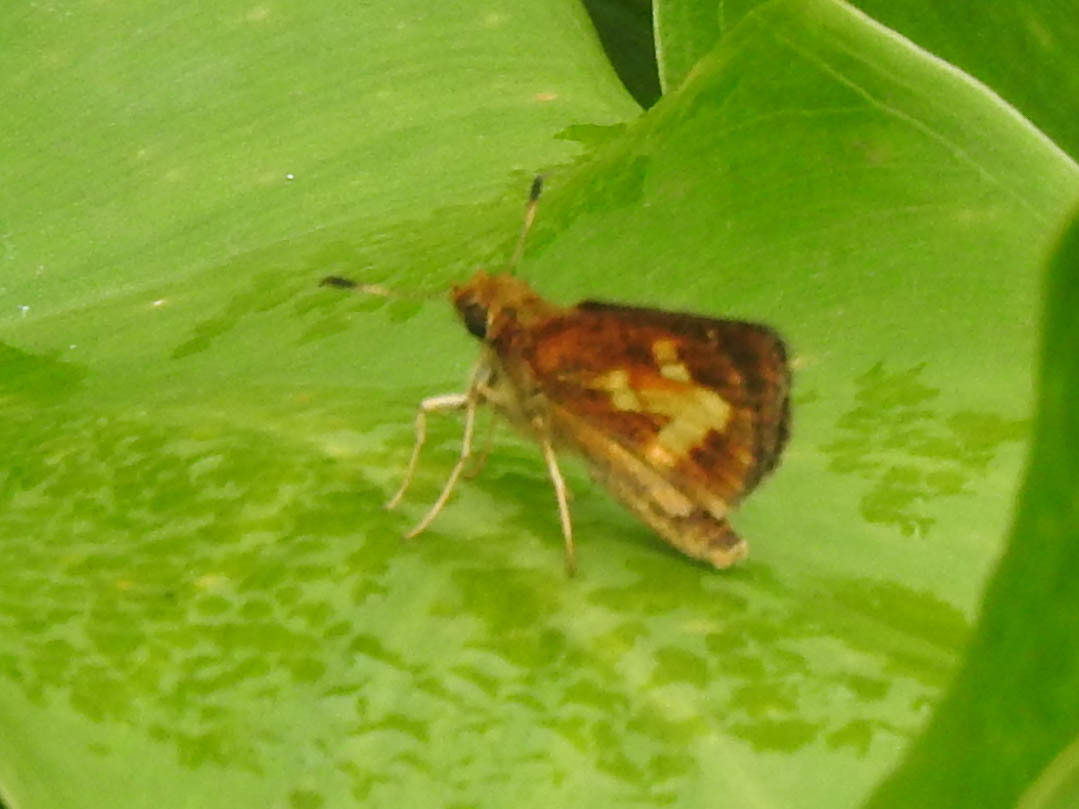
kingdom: Animalia
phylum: Arthropoda
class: Insecta
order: Lepidoptera
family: Hesperiidae
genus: Poanes
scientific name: Poanes massasoit
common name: Mulberrywing
